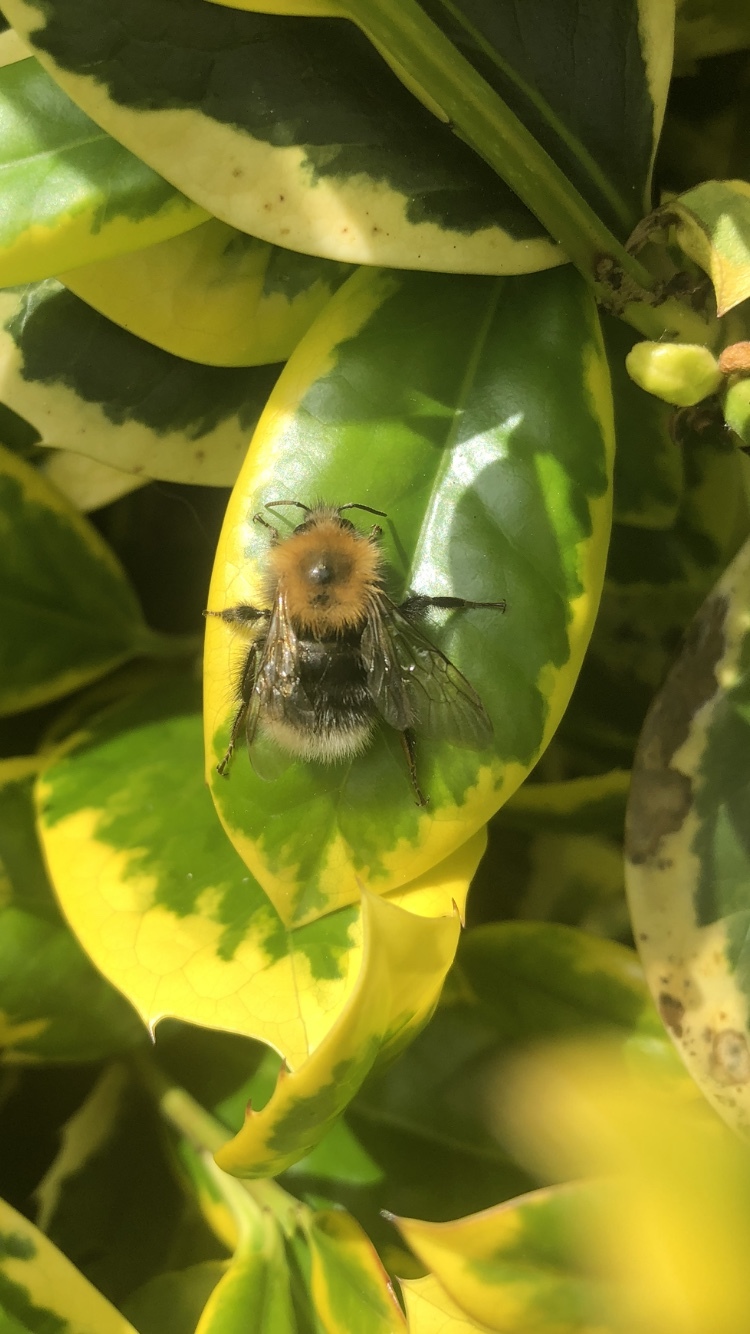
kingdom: Animalia
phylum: Arthropoda
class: Insecta
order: Hymenoptera
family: Apidae
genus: Bombus
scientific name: Bombus hypnorum
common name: New garden bumblebee
